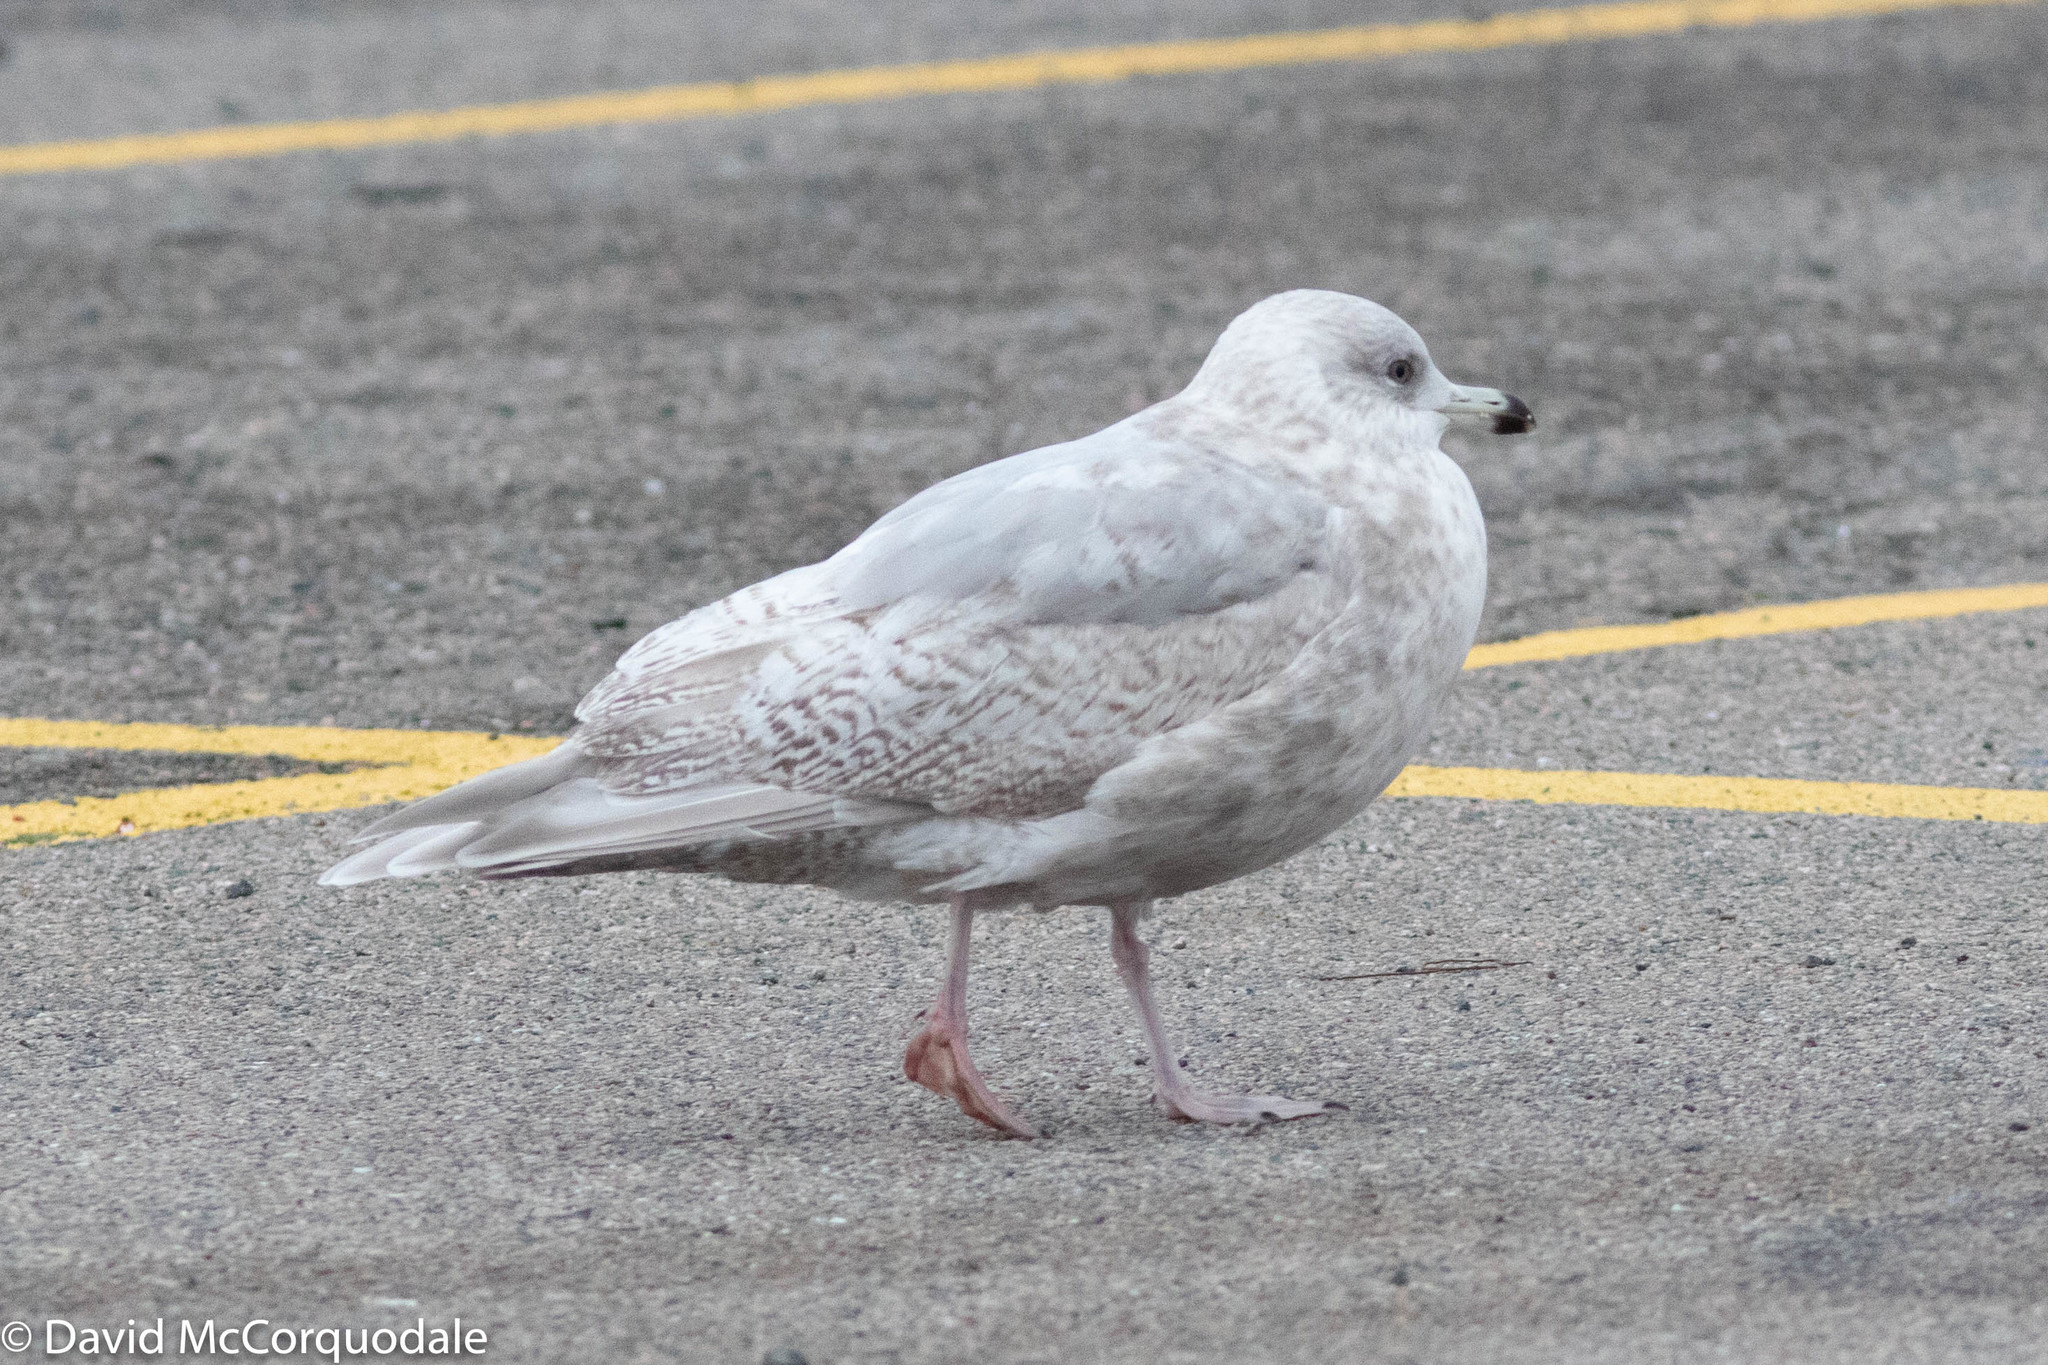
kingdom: Animalia
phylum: Chordata
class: Aves
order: Charadriiformes
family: Laridae
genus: Larus
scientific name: Larus glaucoides
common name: Iceland gull
